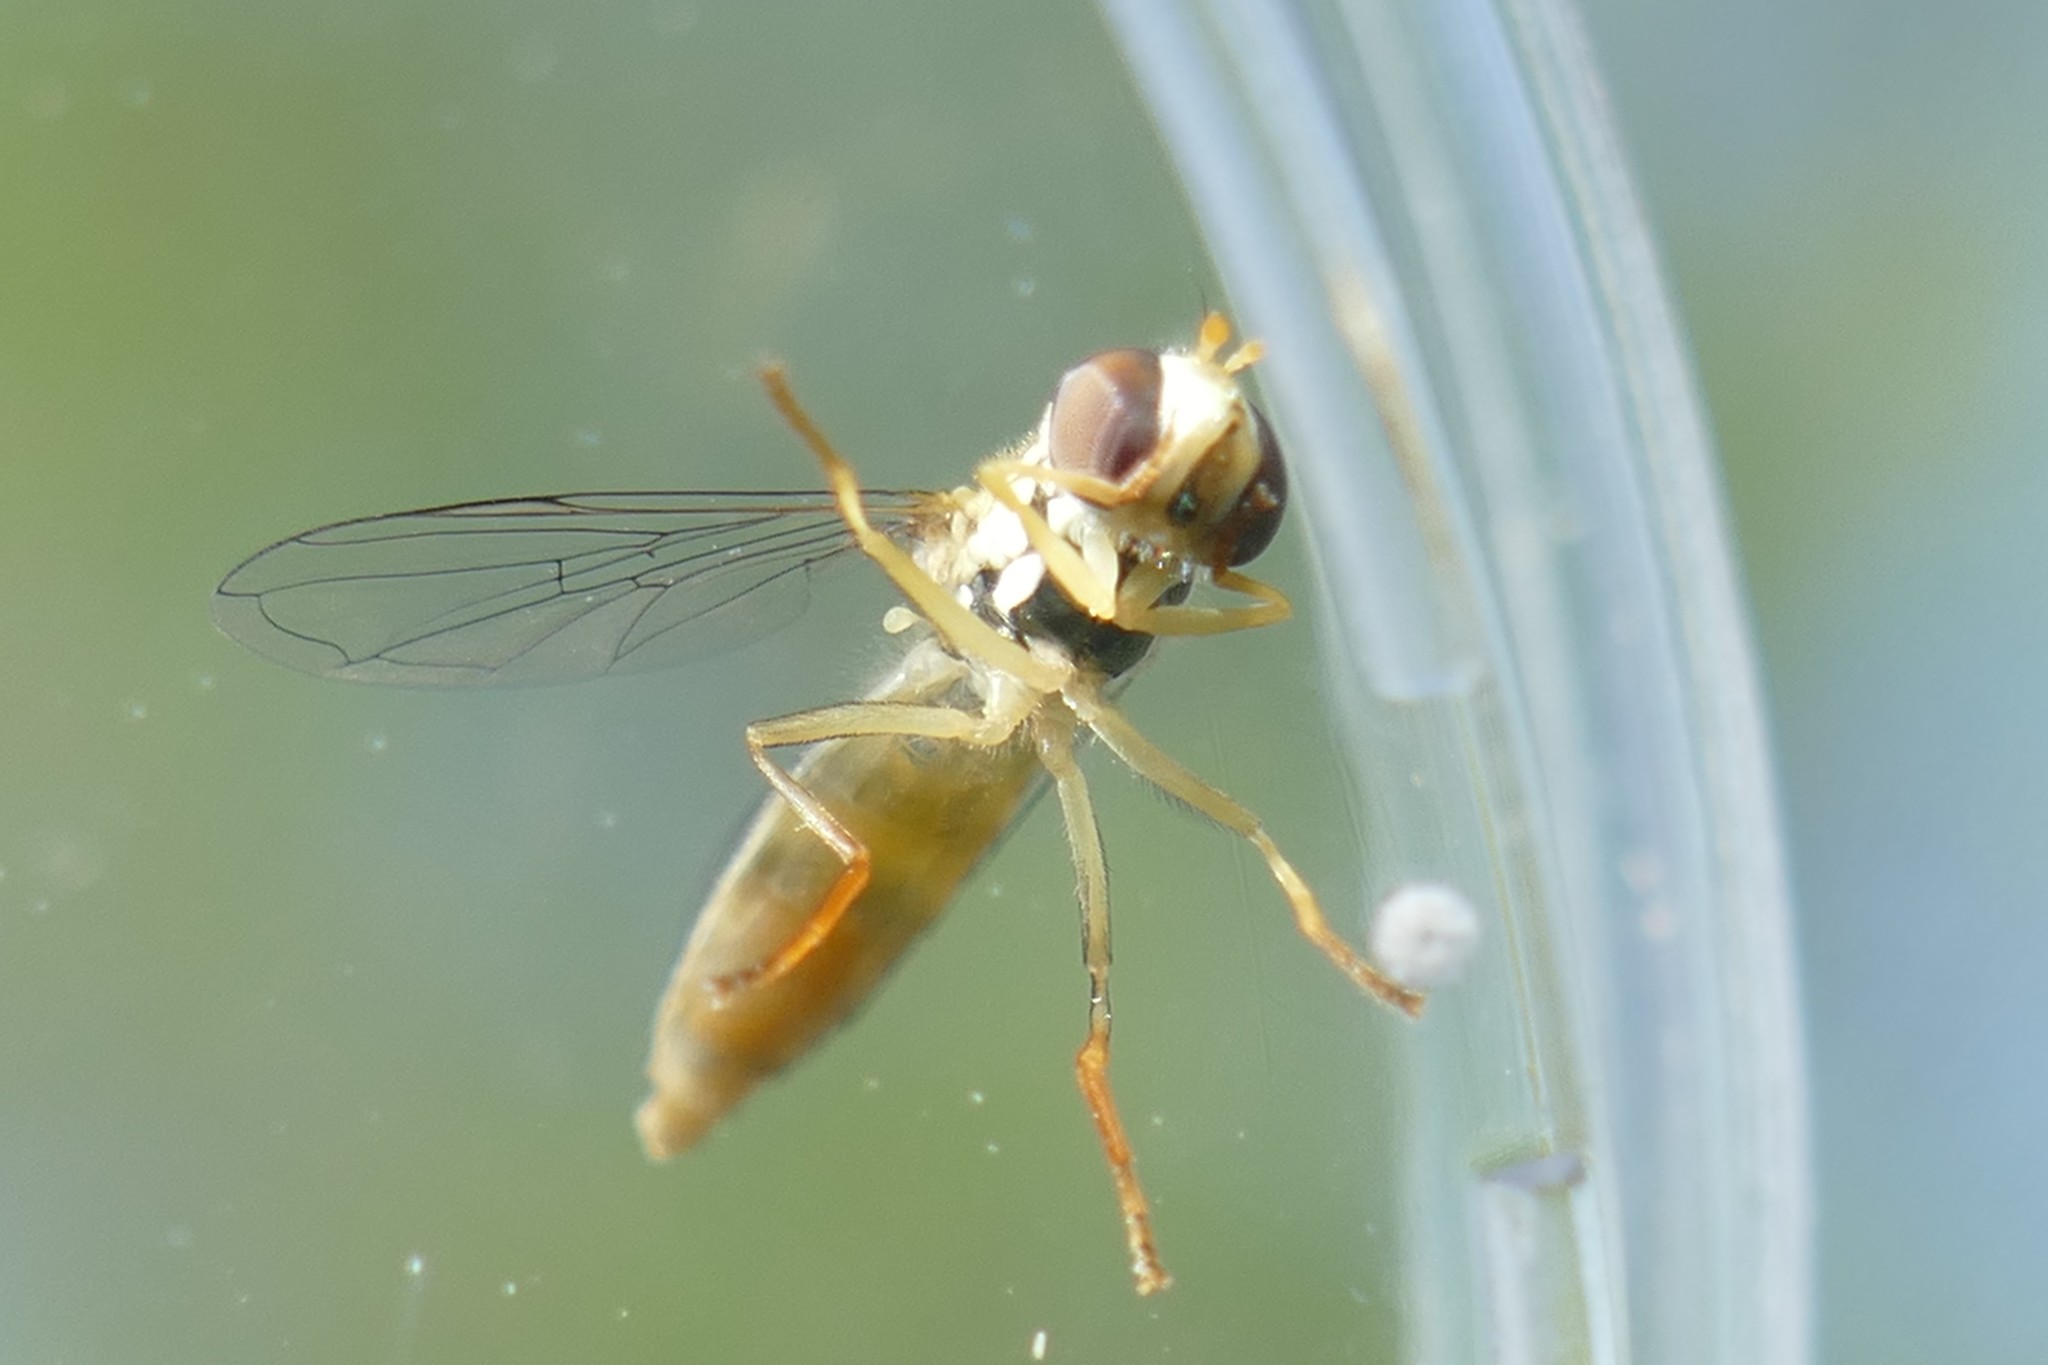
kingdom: Animalia
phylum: Arthropoda
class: Insecta
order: Diptera
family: Syrphidae
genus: Sphaerophoria
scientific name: Sphaerophoria scripta
